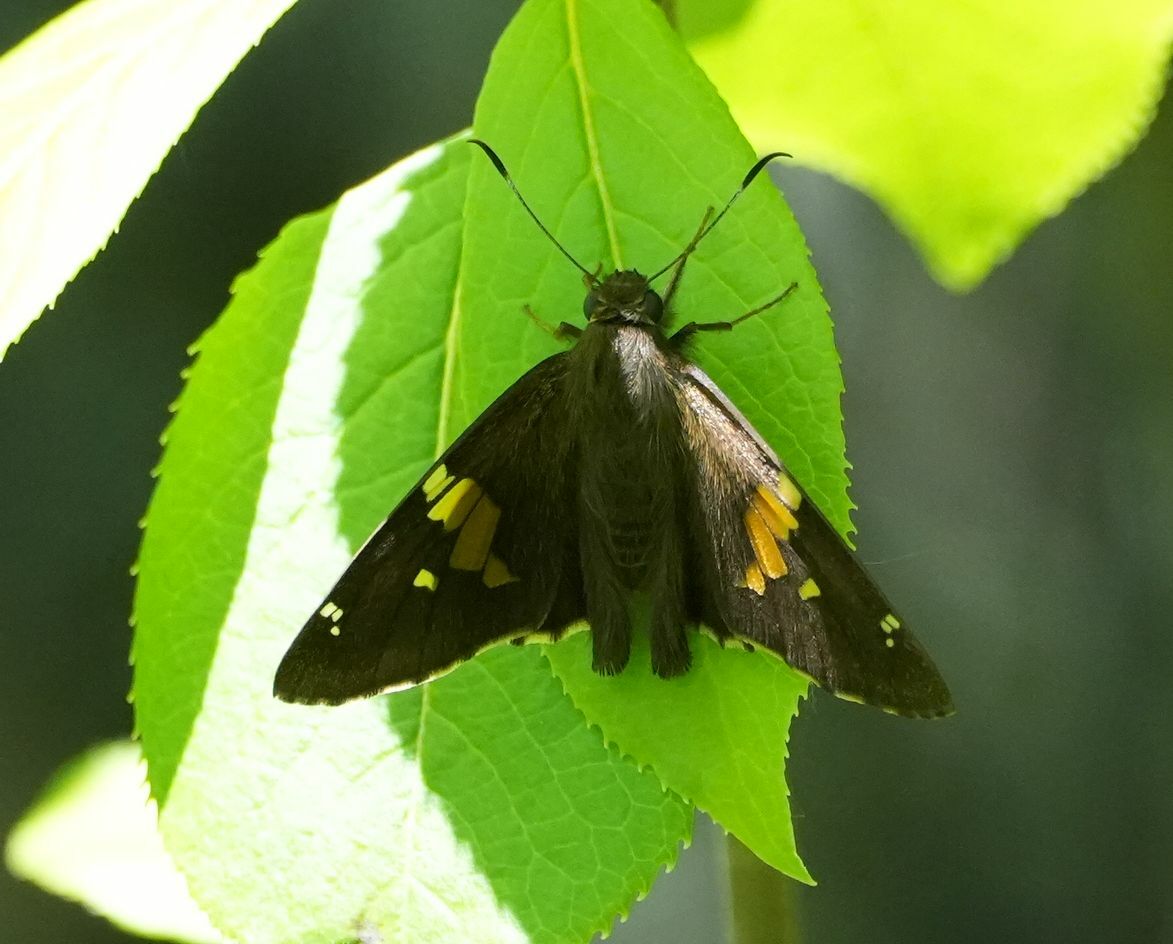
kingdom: Animalia
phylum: Arthropoda
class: Insecta
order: Lepidoptera
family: Hesperiidae
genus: Epargyreus
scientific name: Epargyreus clarus
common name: Silver-spotted skipper
